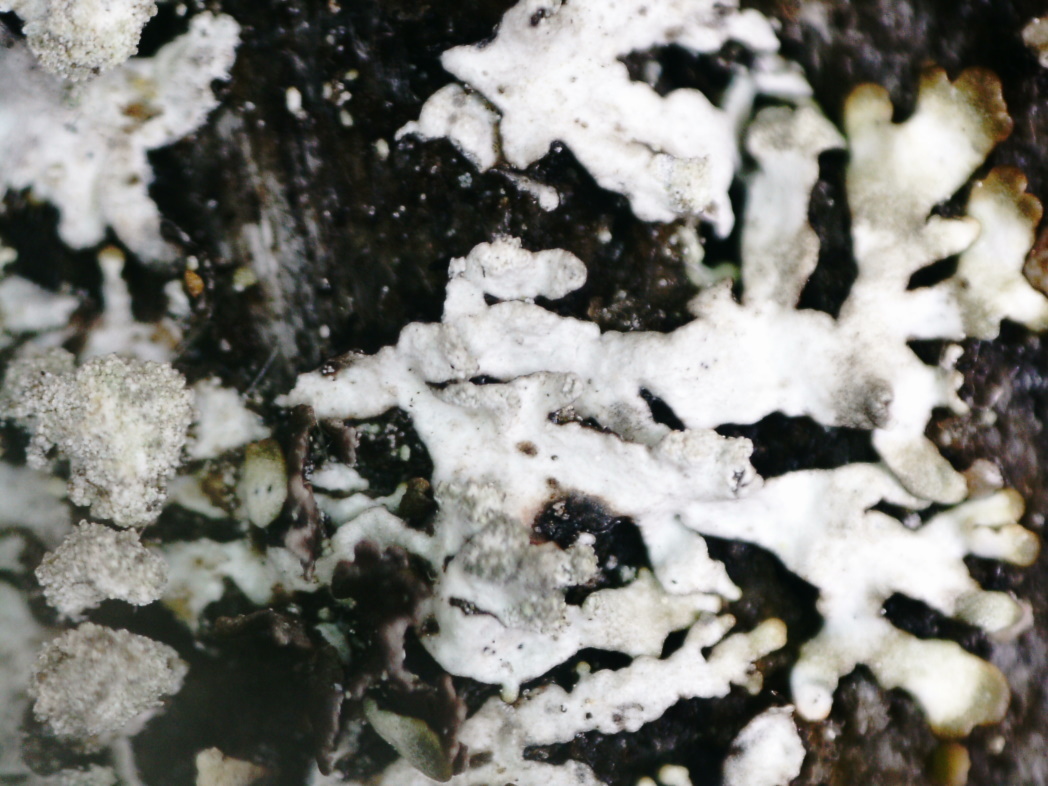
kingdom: Fungi
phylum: Ascomycota
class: Lecanoromycetes
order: Lecanorales
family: Parmeliaceae
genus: Parmeliopsis
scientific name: Parmeliopsis hyperopta
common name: Grey starburst lichen
